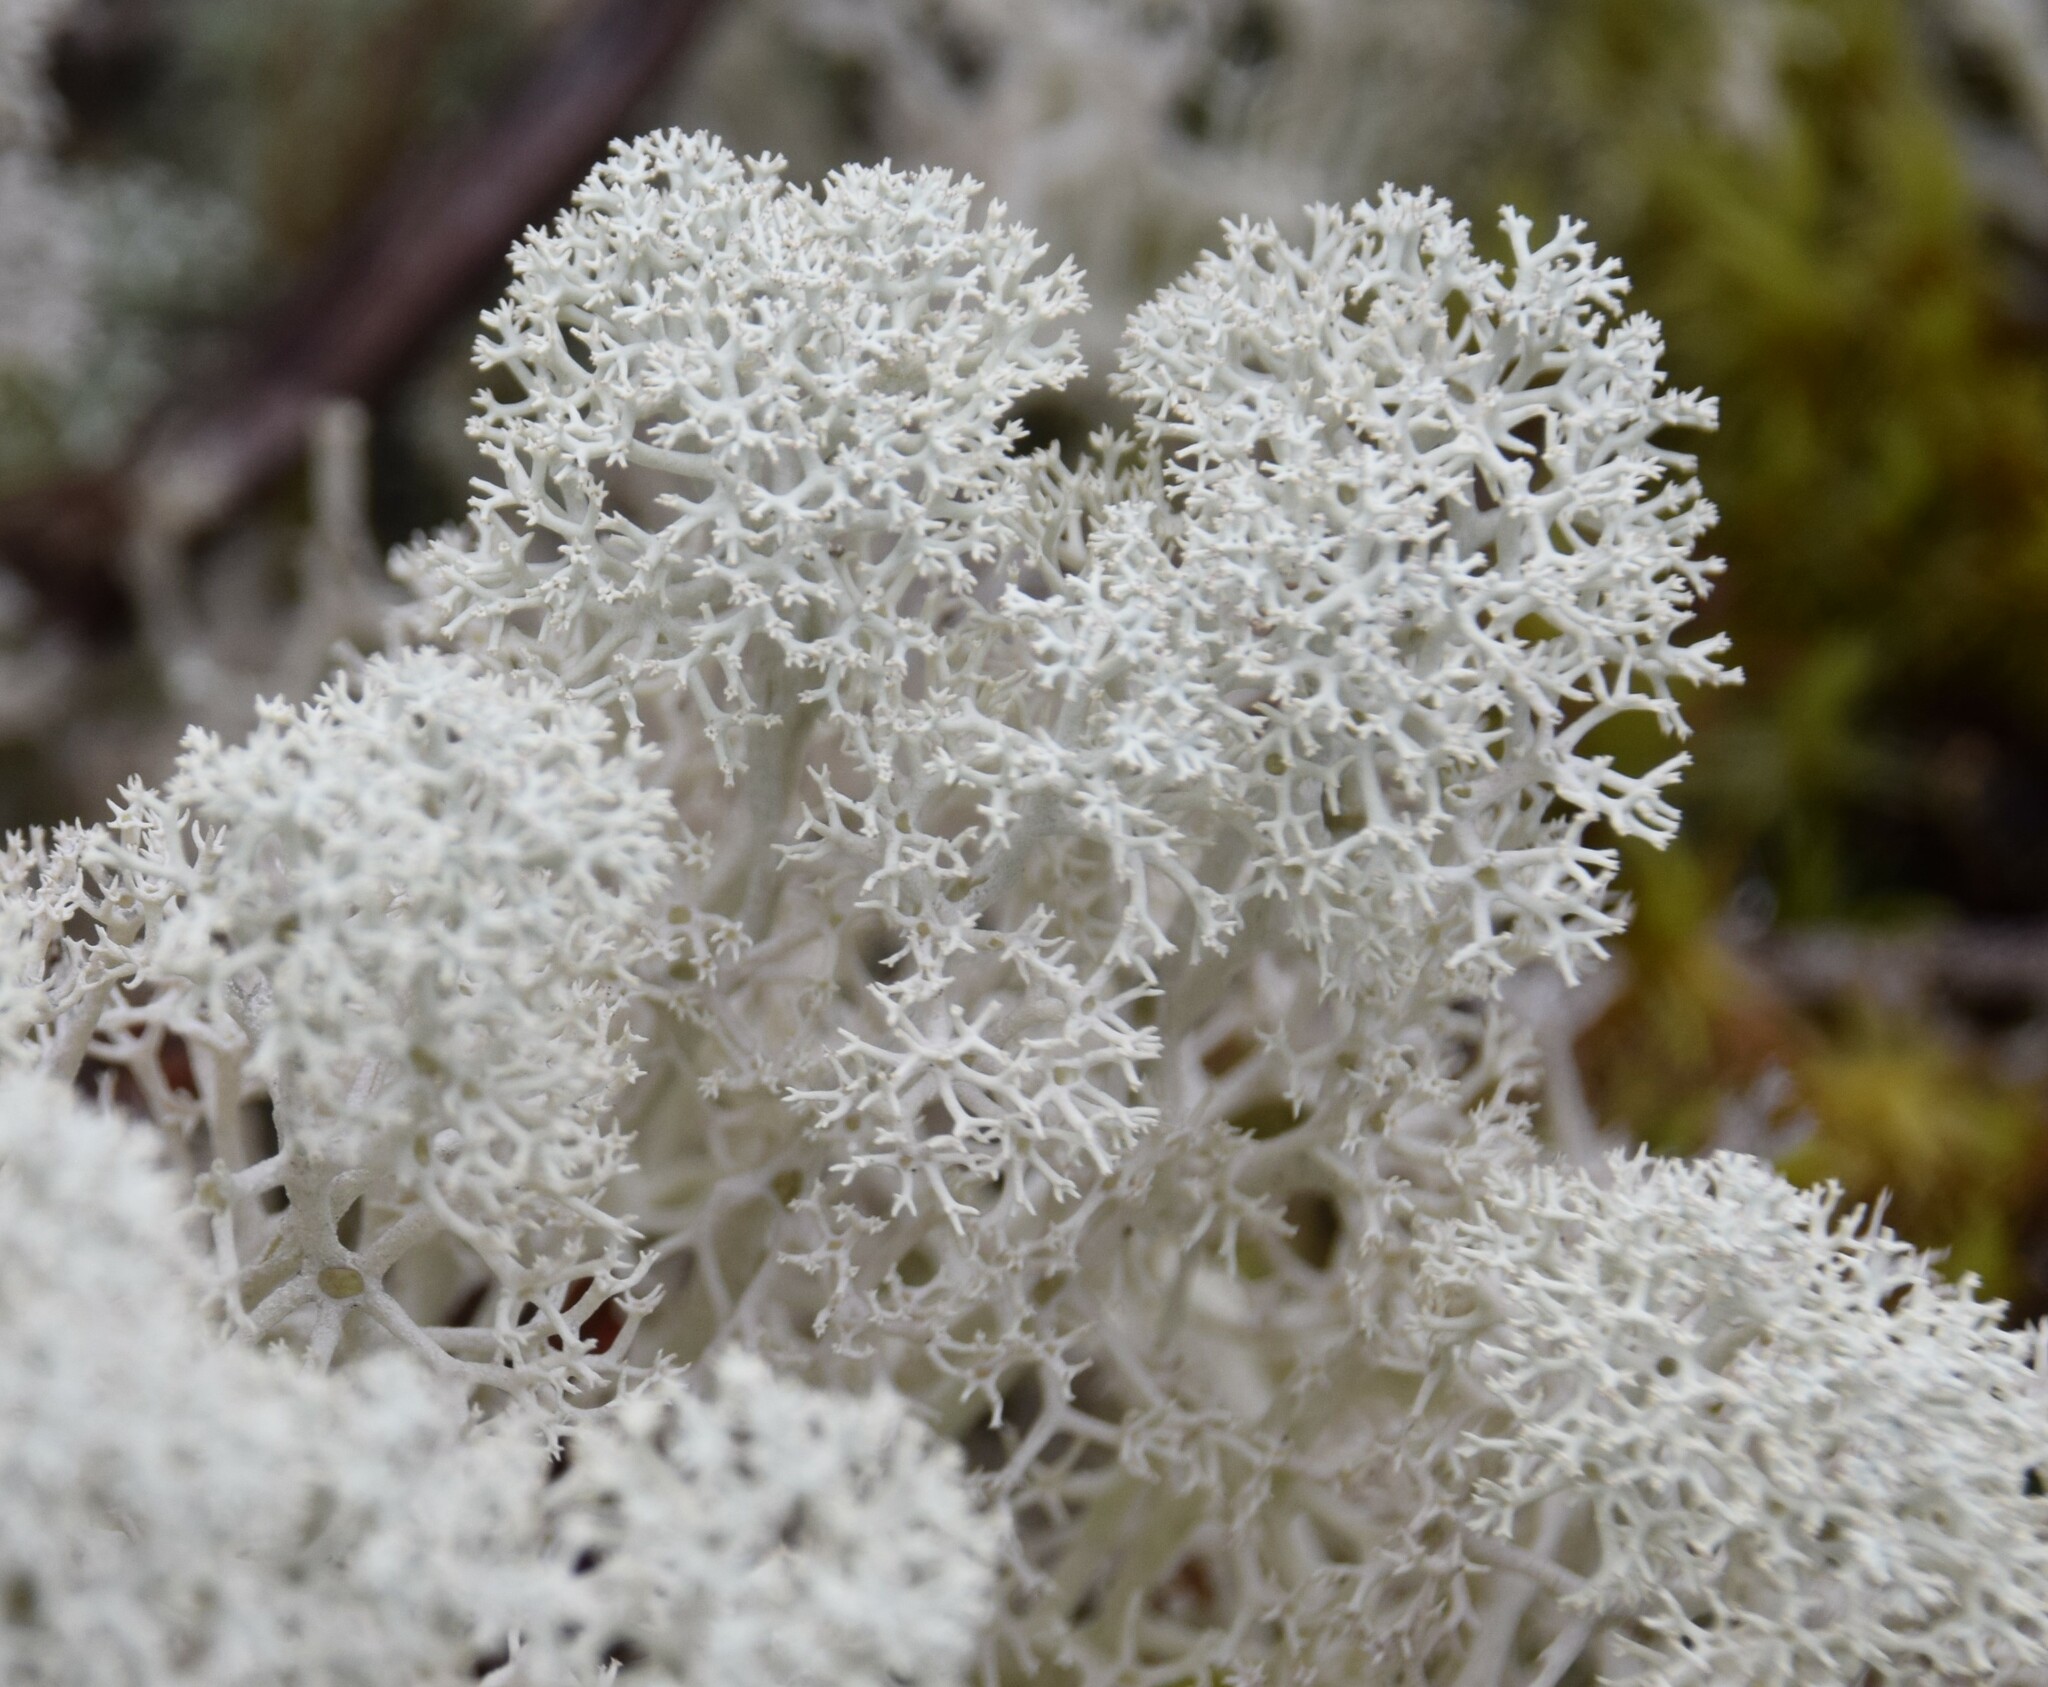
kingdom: Fungi
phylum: Ascomycota
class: Lecanoromycetes
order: Lecanorales
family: Cladoniaceae
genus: Cladonia
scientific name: Cladonia stellaris
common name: Star-tipped reindeer lichen
